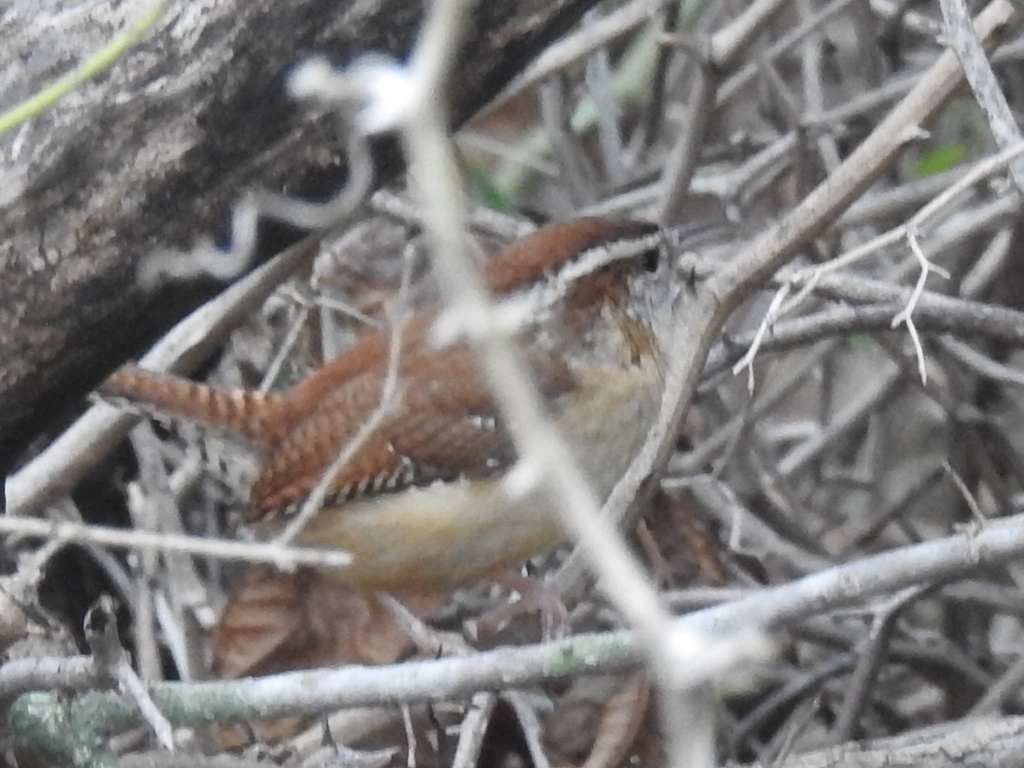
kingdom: Animalia
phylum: Chordata
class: Aves
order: Passeriformes
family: Troglodytidae
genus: Thryothorus
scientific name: Thryothorus ludovicianus
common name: Carolina wren
